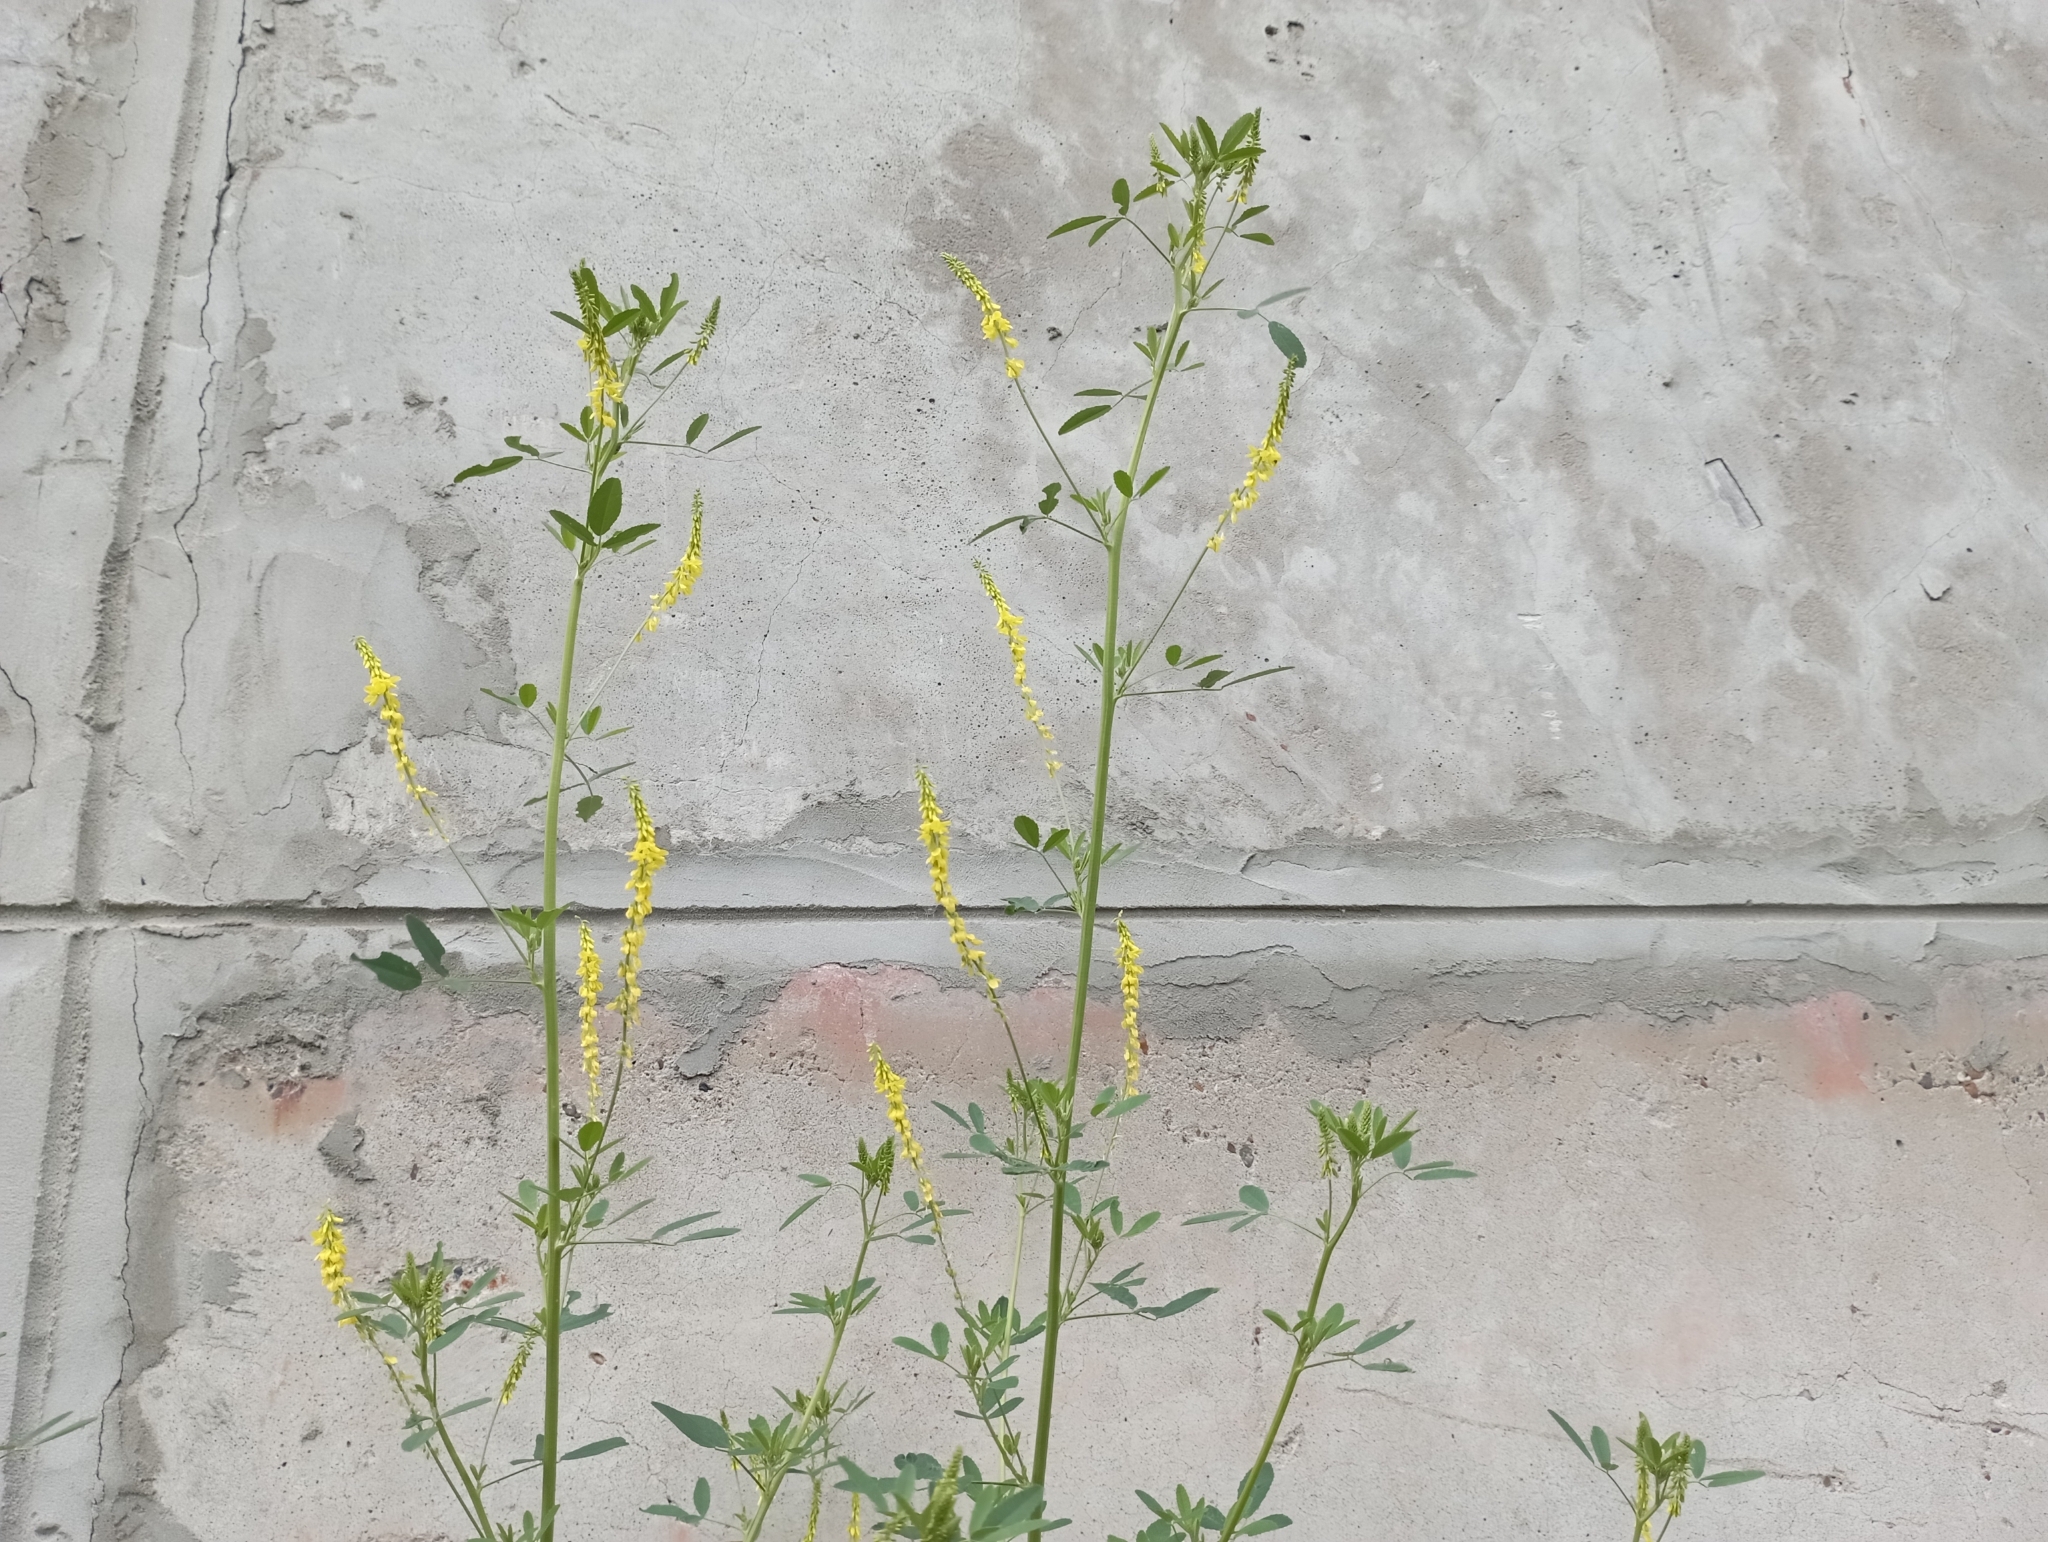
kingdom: Plantae
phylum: Tracheophyta
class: Magnoliopsida
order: Fabales
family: Fabaceae
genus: Melilotus
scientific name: Melilotus officinalis
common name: Sweetclover
